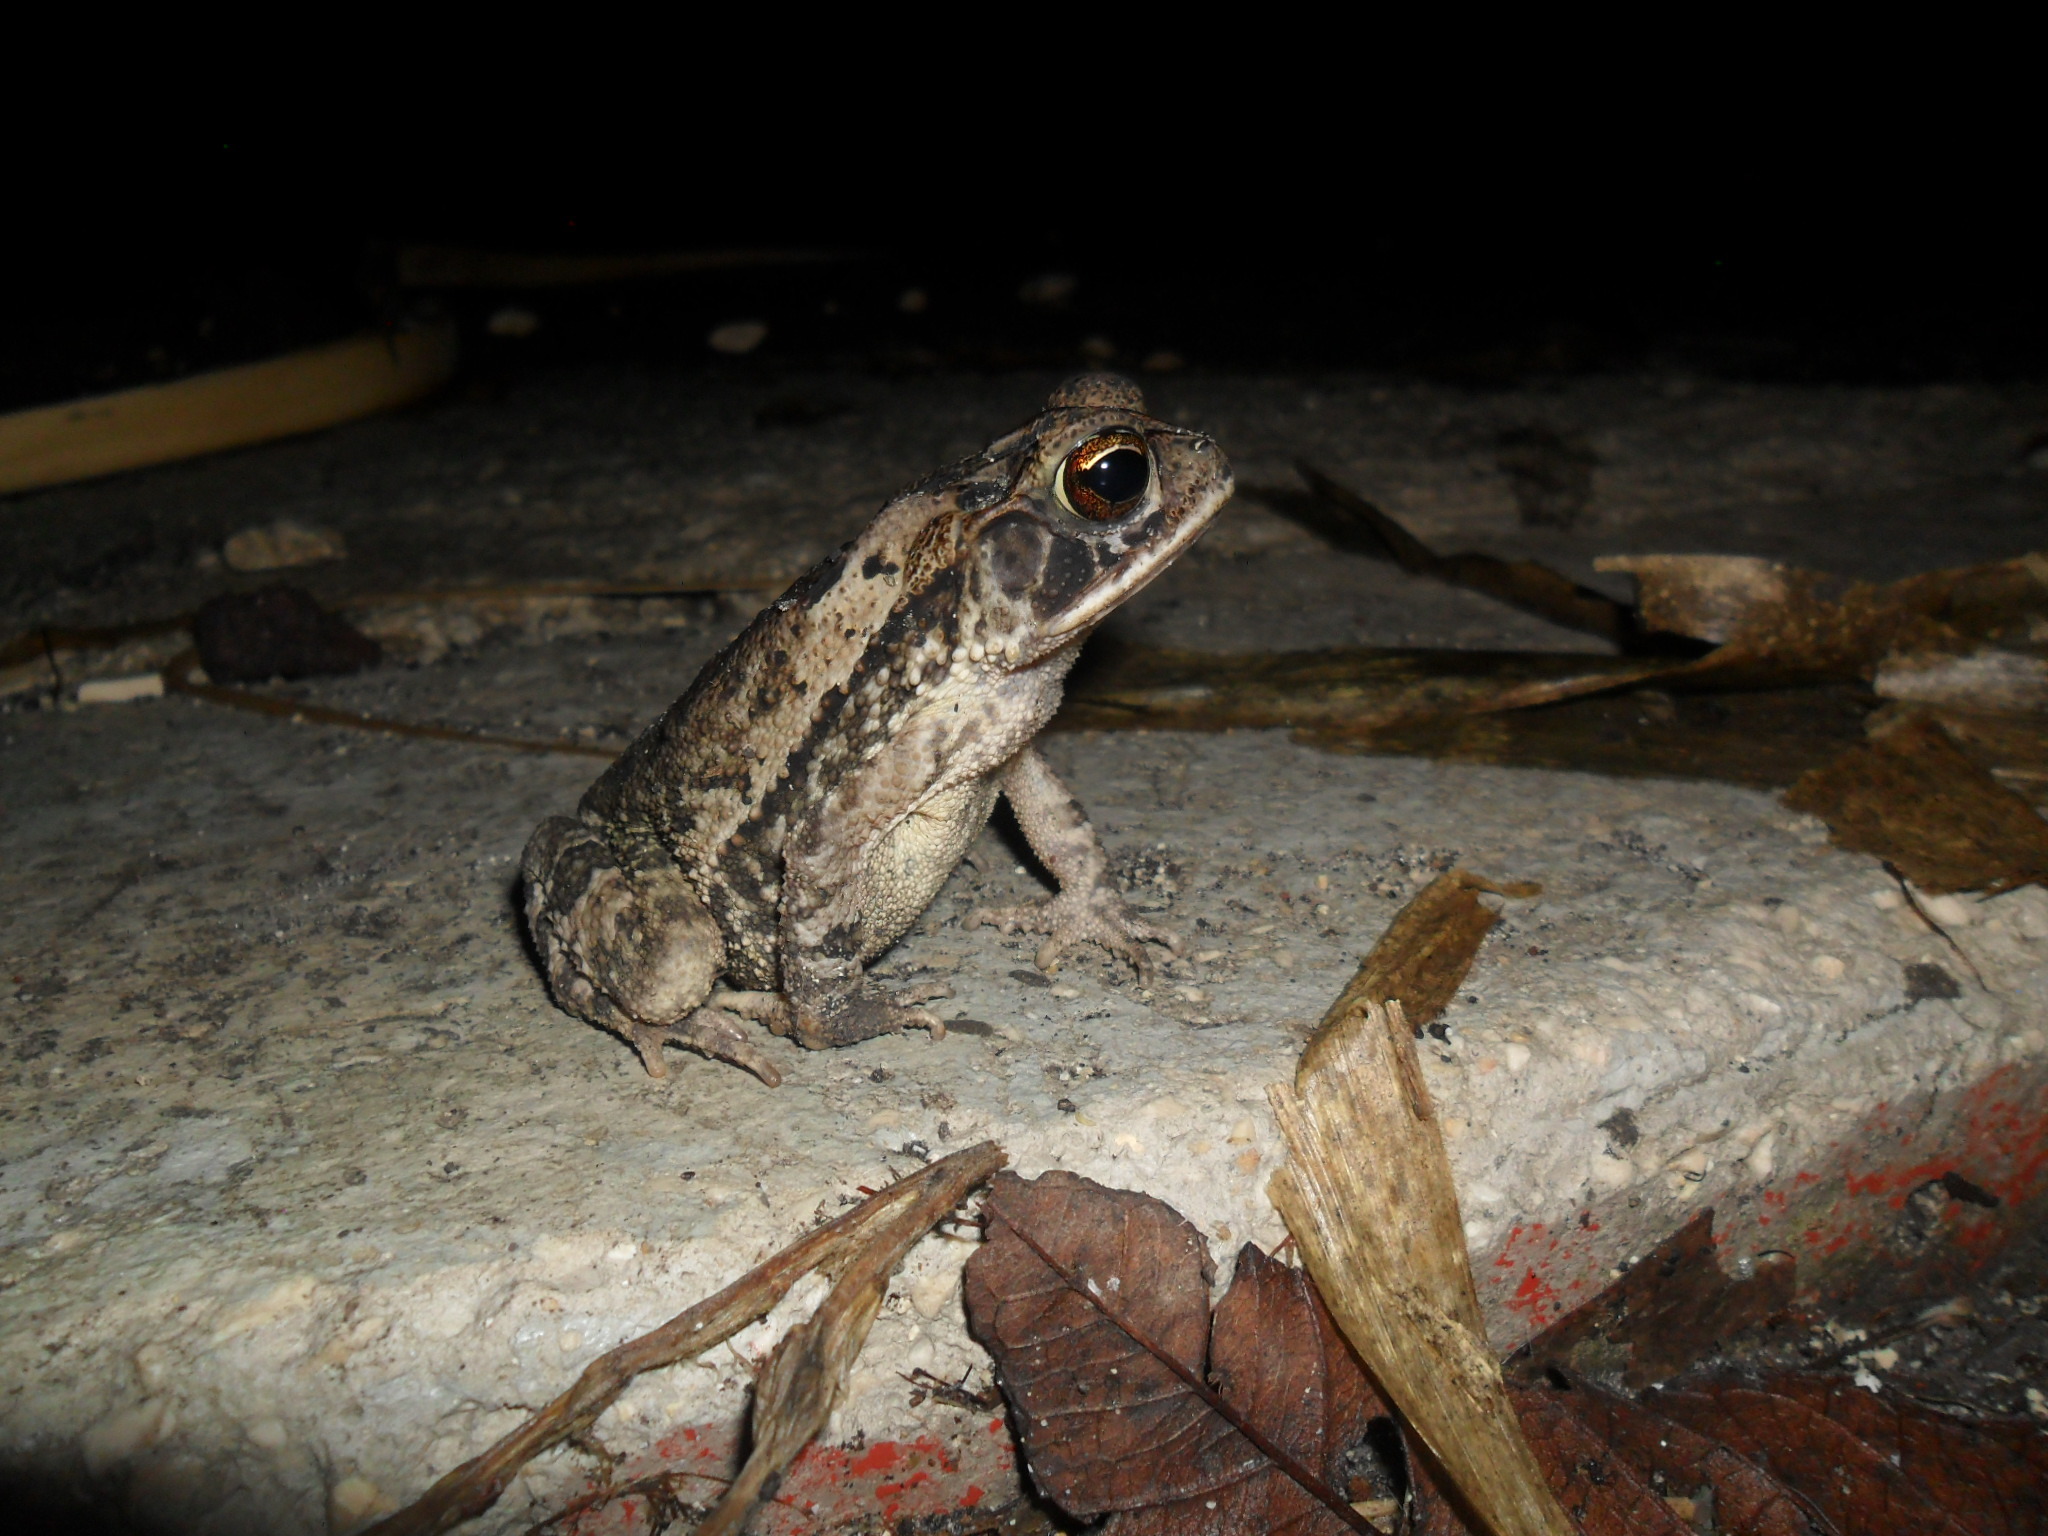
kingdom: Animalia
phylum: Chordata
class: Amphibia
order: Anura
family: Bufonidae
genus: Incilius
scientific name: Incilius valliceps
